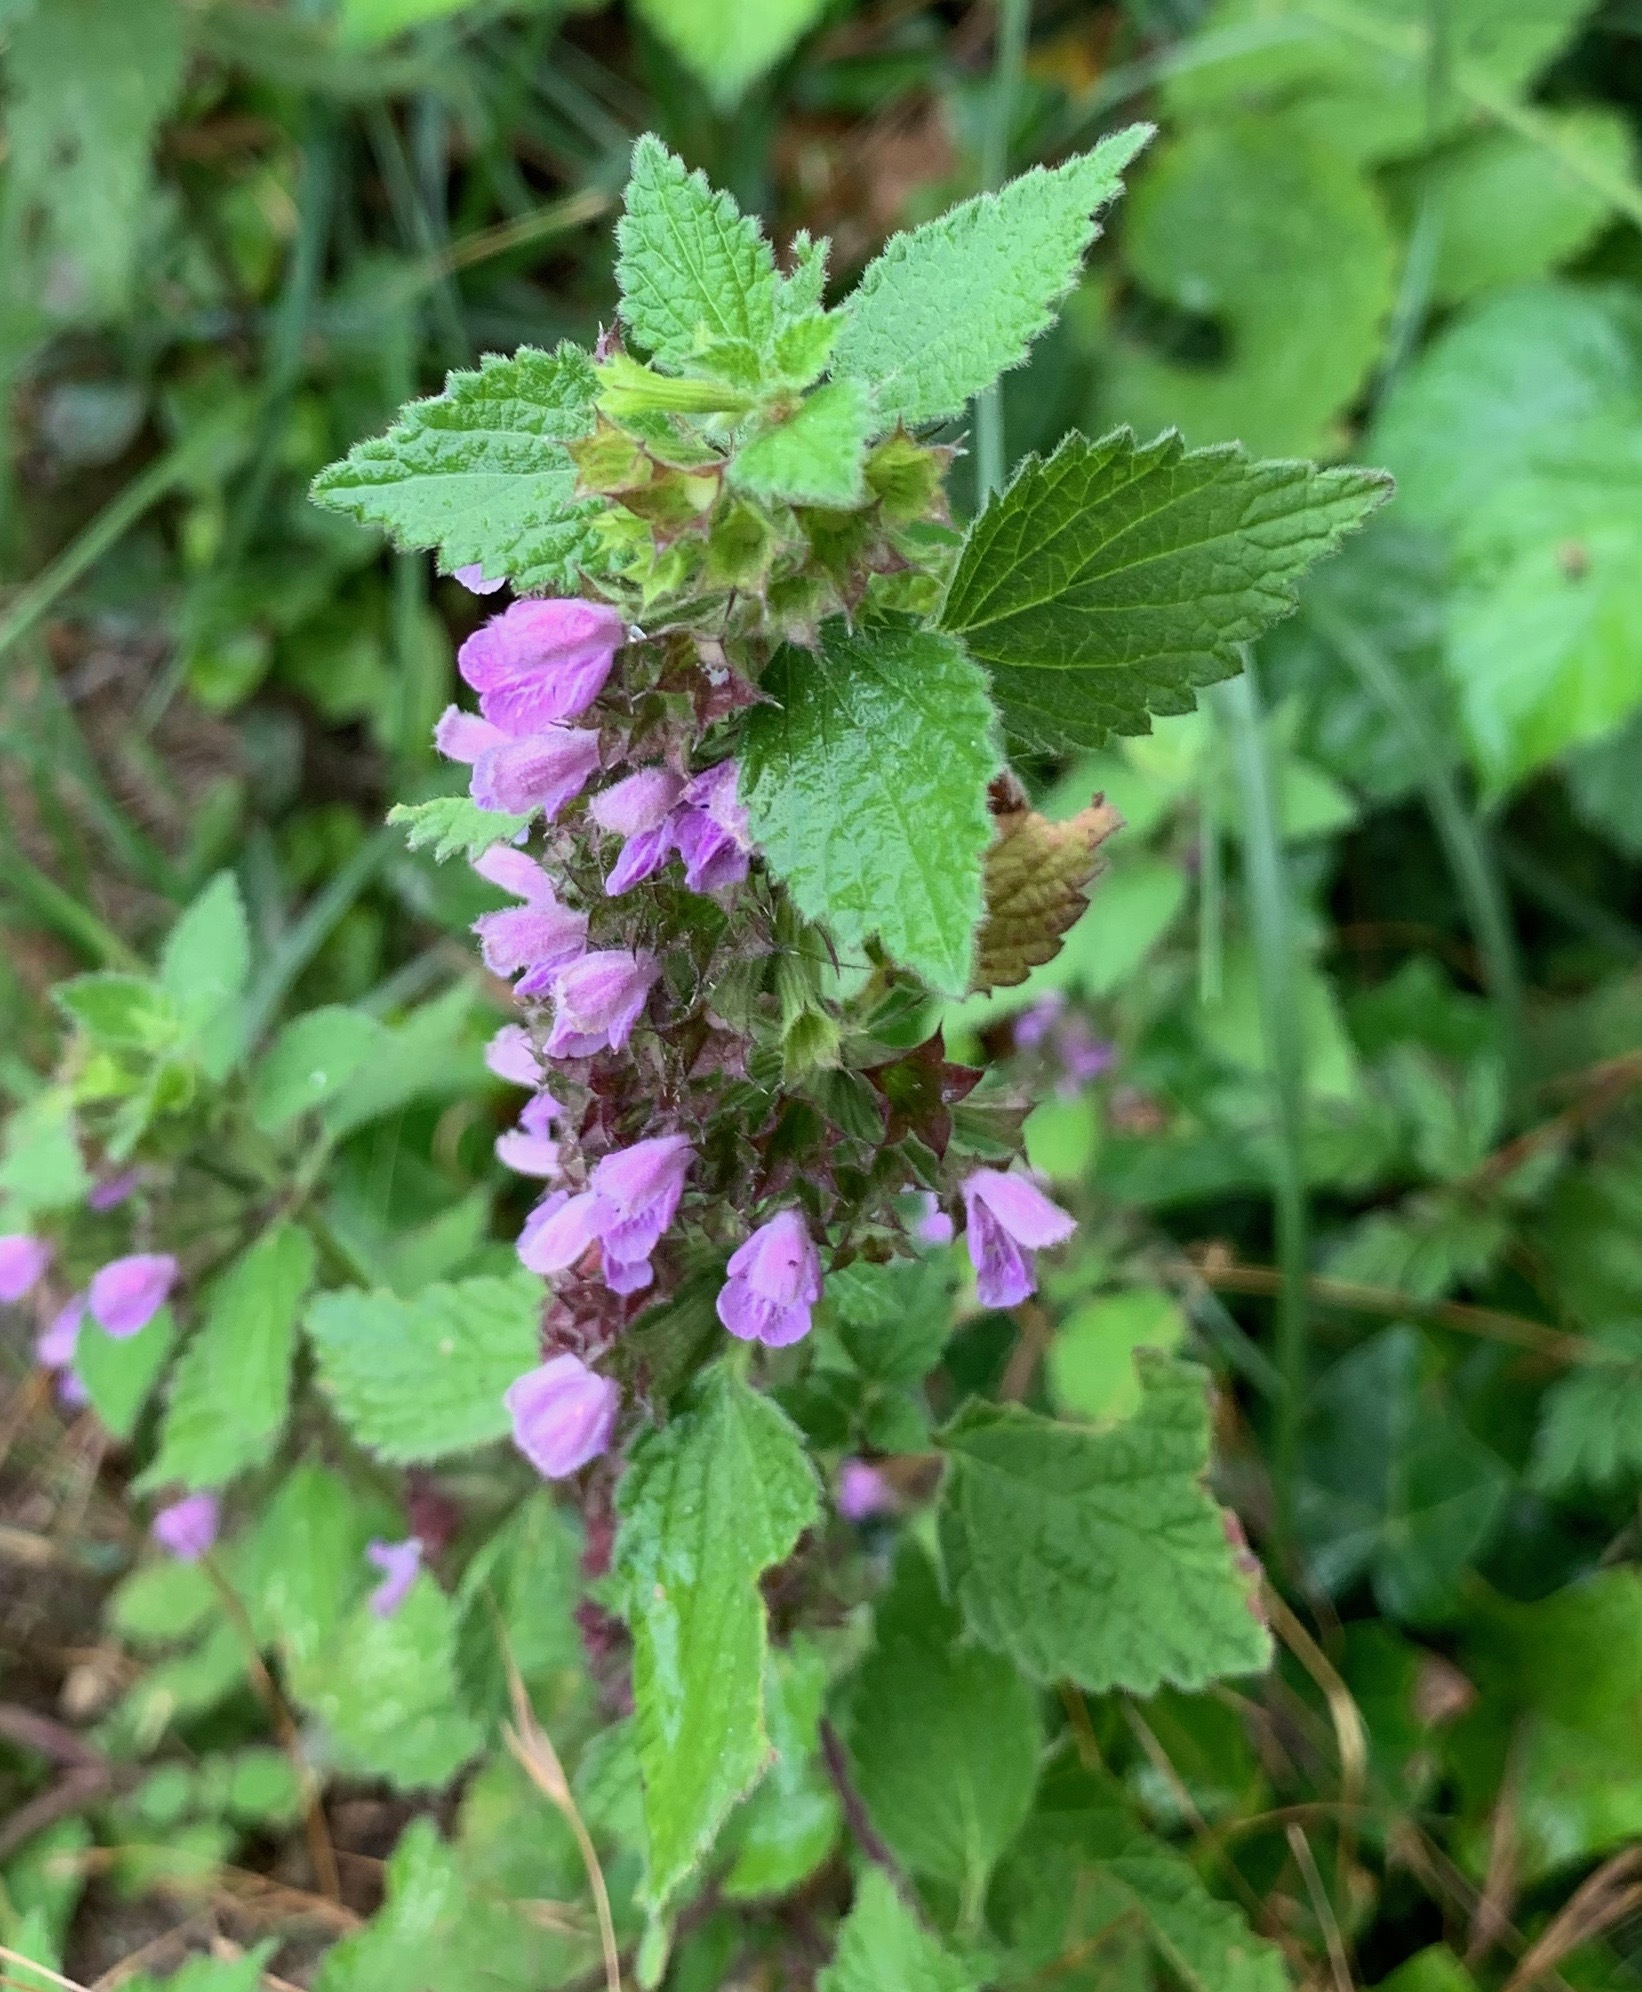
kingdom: Plantae
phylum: Tracheophyta
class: Magnoliopsida
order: Lamiales
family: Lamiaceae
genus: Ballota
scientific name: Ballota nigra
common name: Black horehound
